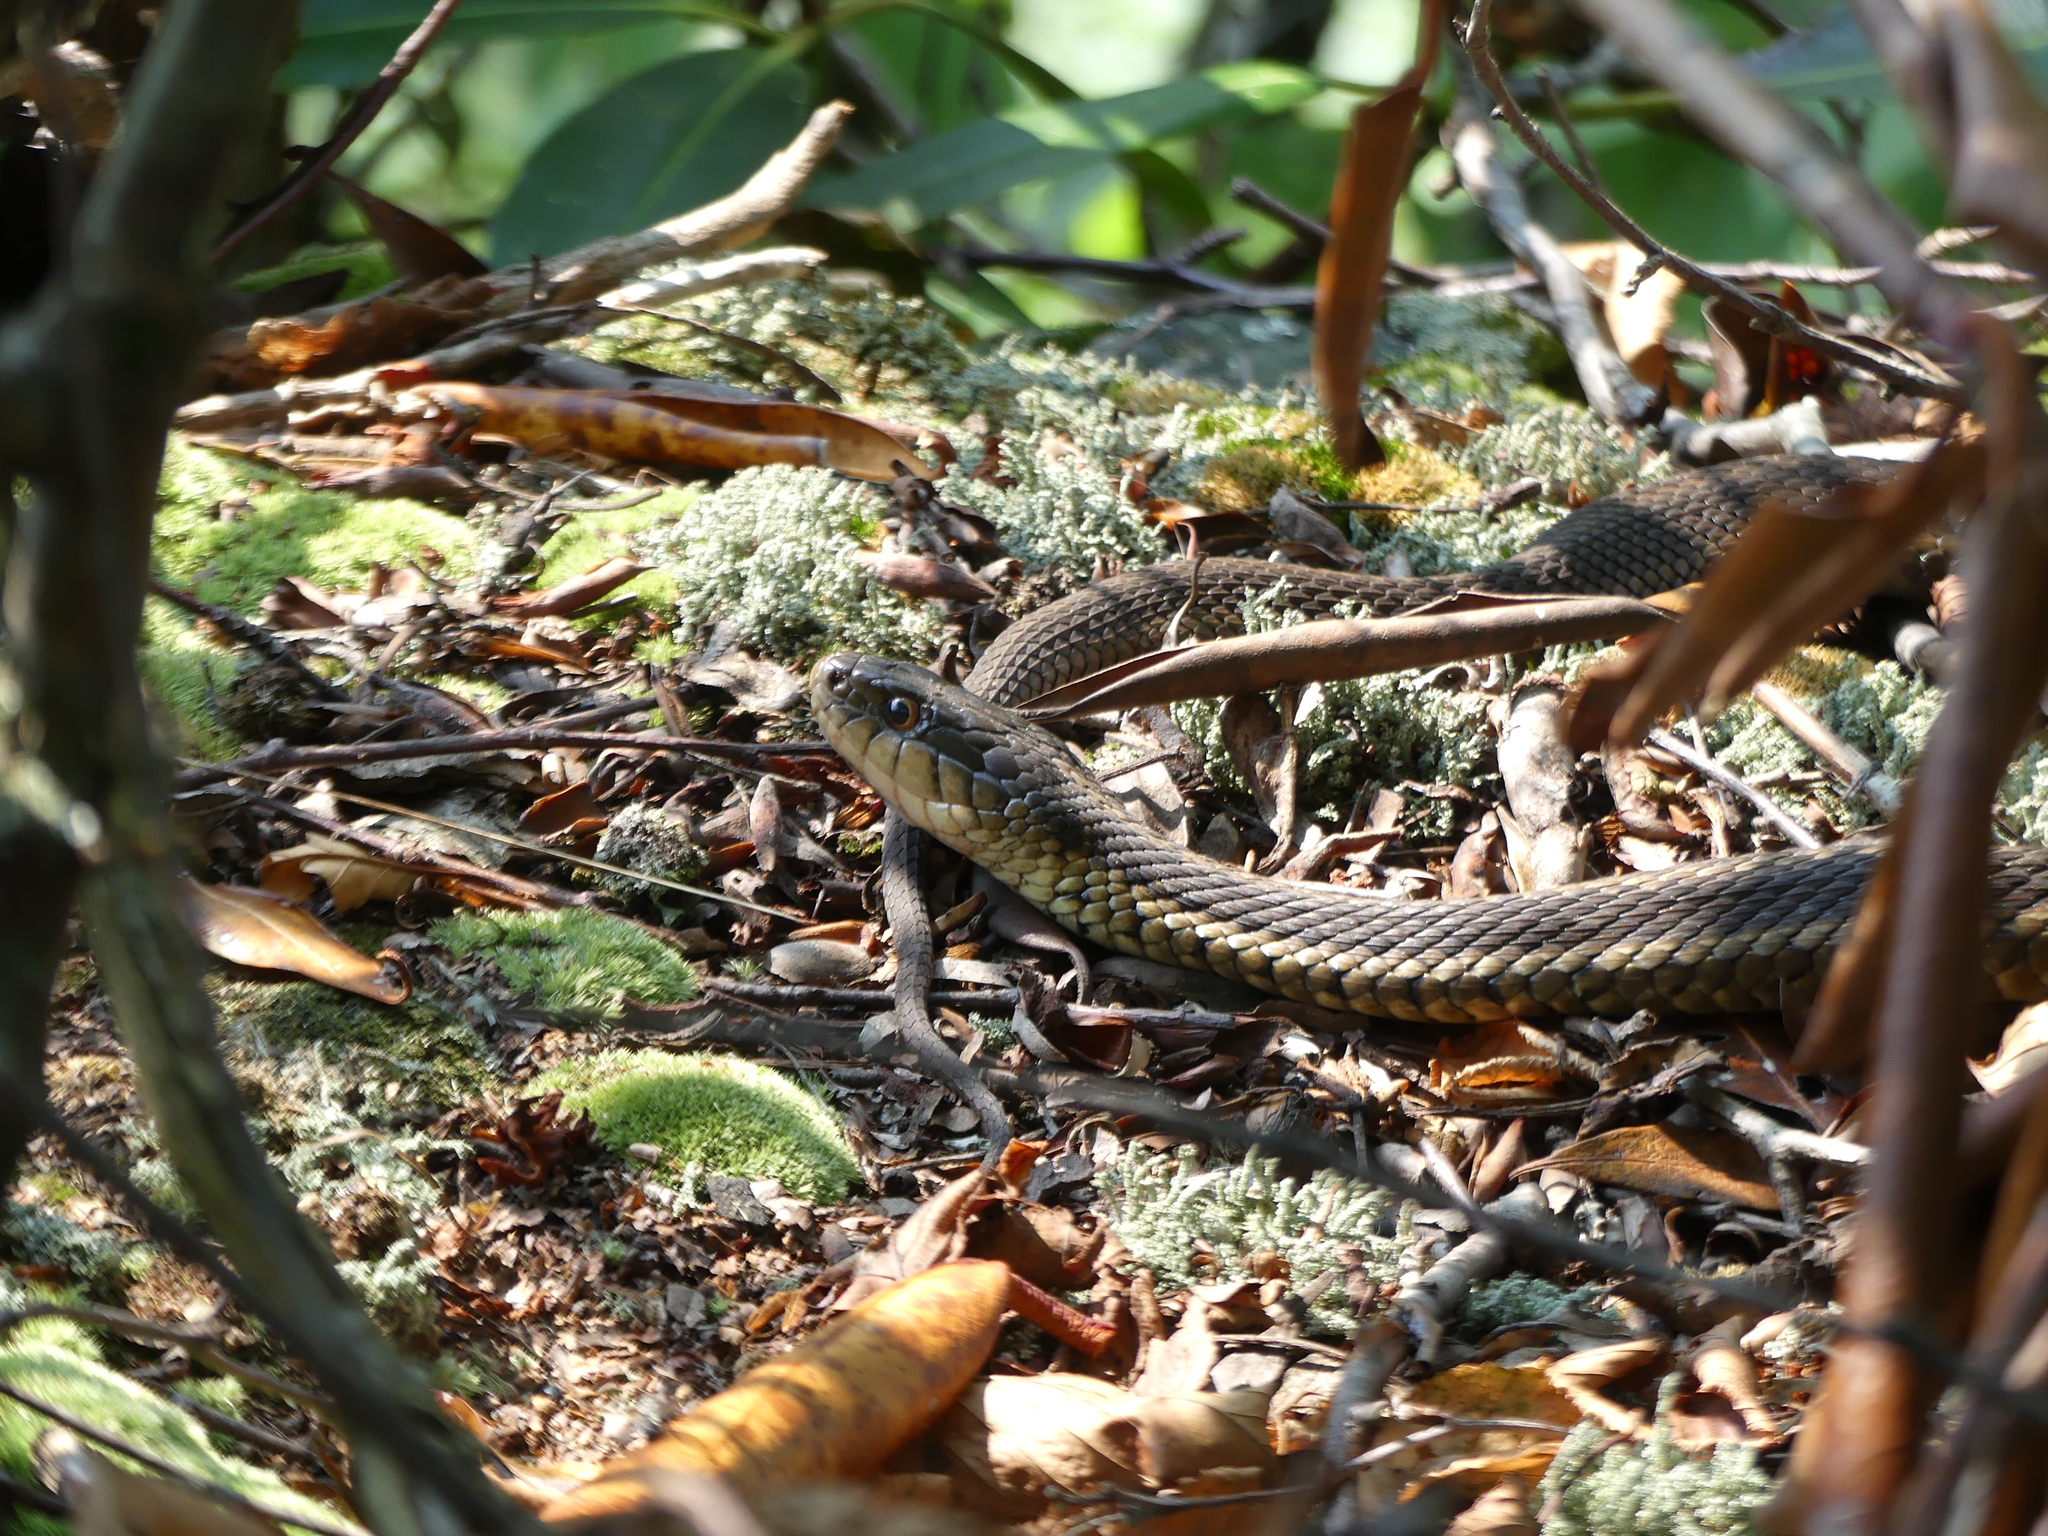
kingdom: Animalia
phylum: Chordata
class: Squamata
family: Colubridae
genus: Thamnophis
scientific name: Thamnophis sirtalis
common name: Common garter snake
